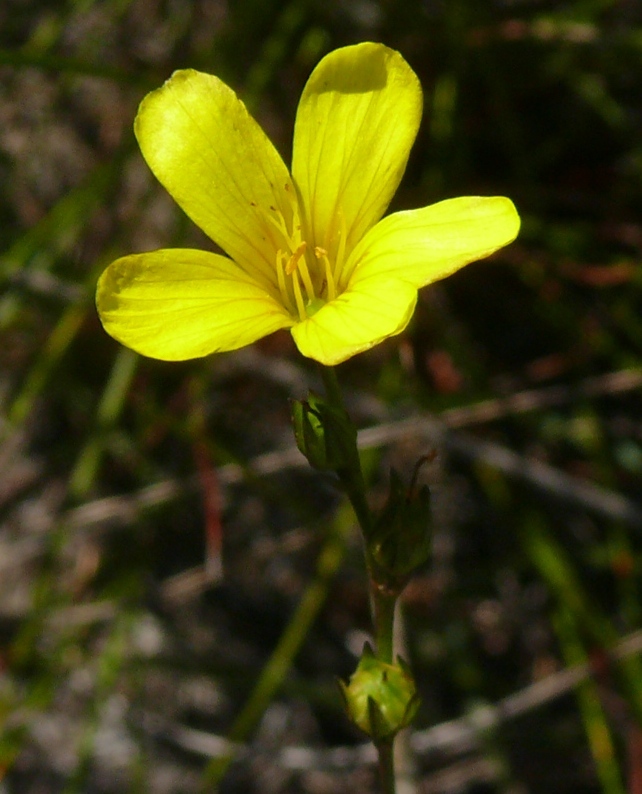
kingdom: Plantae
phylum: Tracheophyta
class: Magnoliopsida
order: Malpighiales
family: Linaceae
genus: Linum
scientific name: Linum africanum
